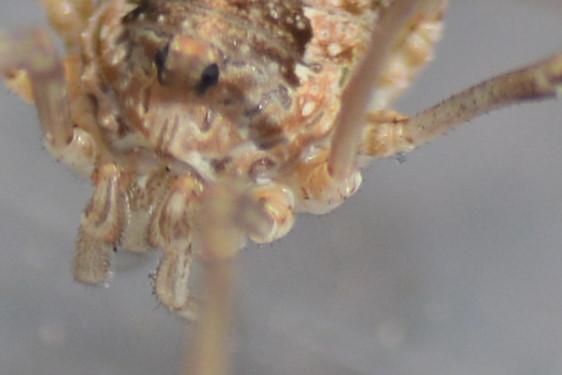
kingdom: Animalia
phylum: Arthropoda
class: Arachnida
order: Opiliones
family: Phalangiidae
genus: Phalangium
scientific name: Phalangium opilio
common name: Daddy longleg
